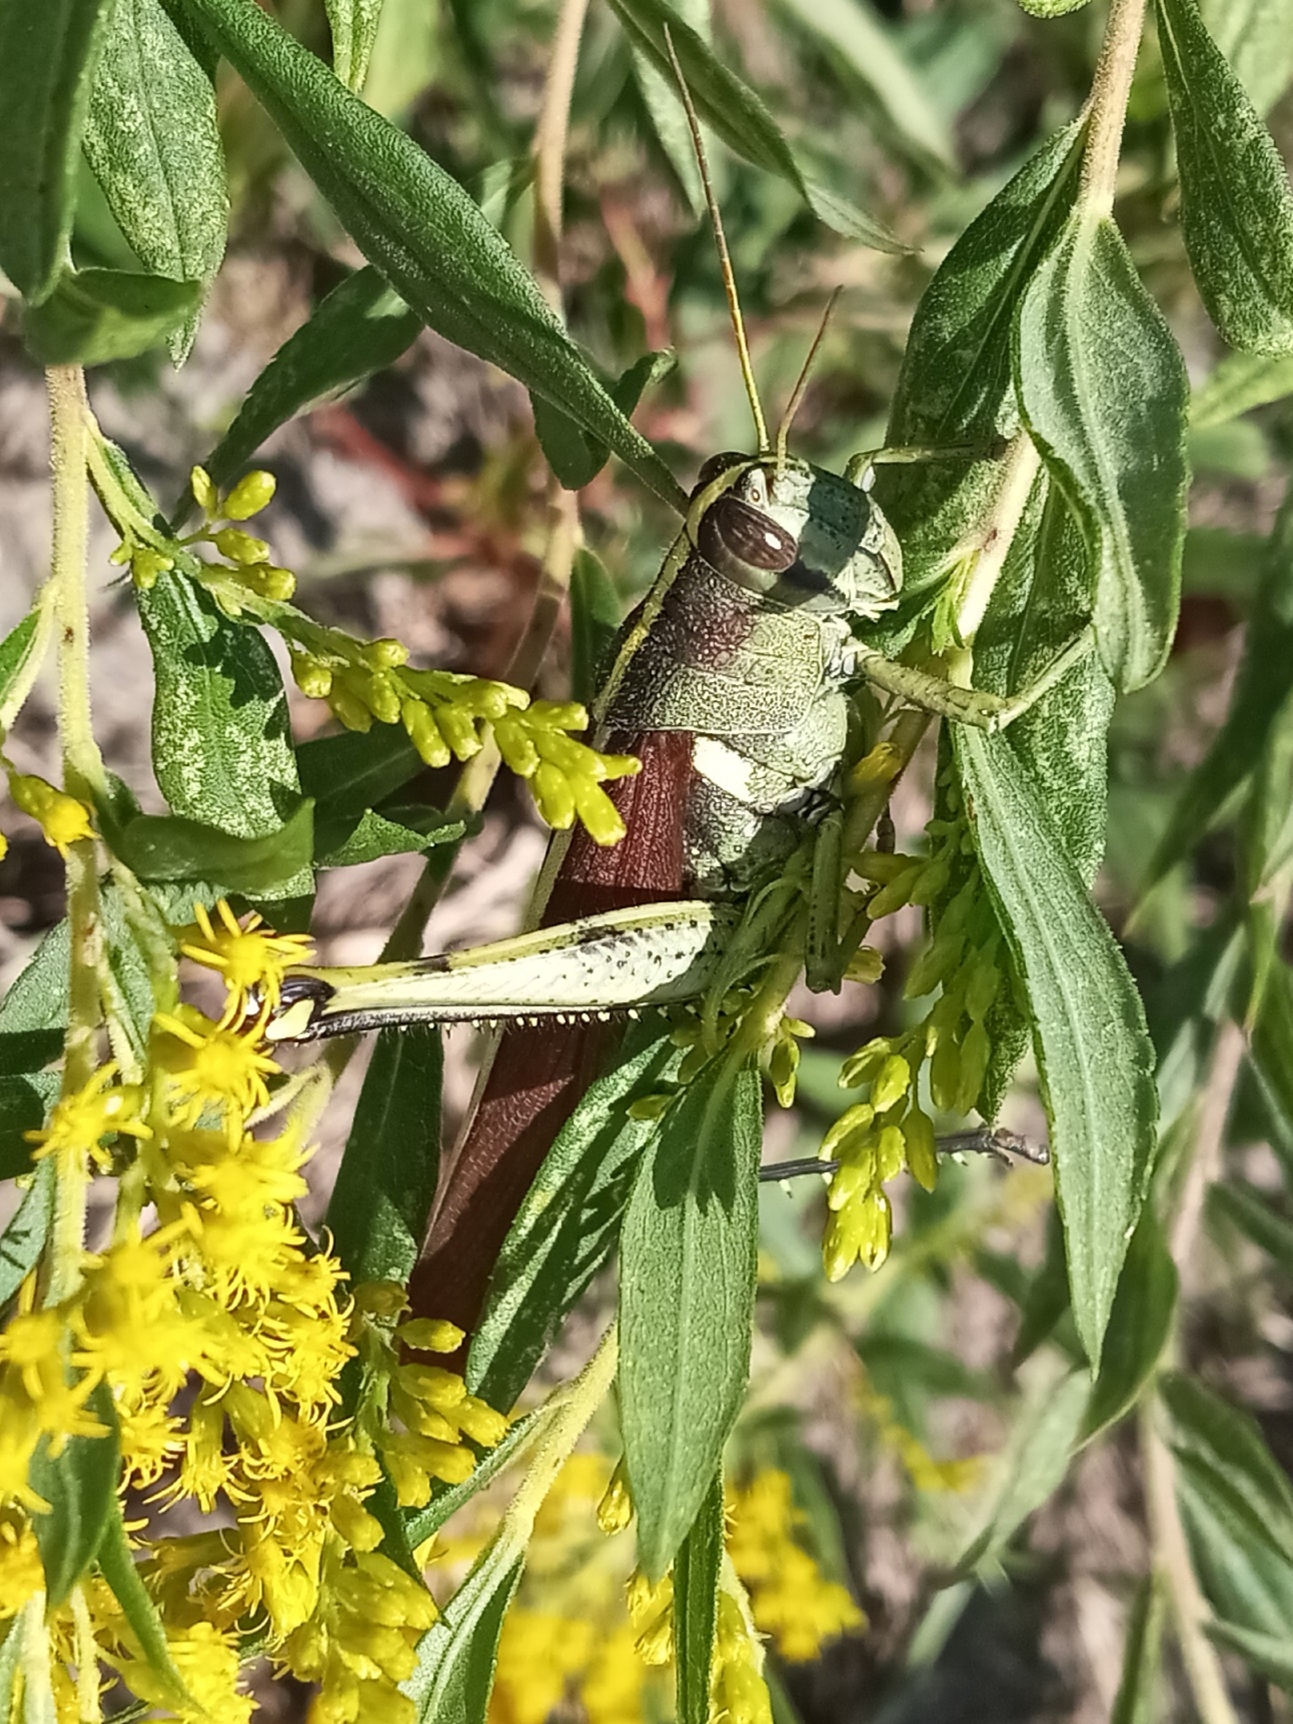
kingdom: Animalia
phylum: Arthropoda
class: Insecta
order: Orthoptera
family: Acrididae
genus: Schistocerca
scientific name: Schistocerca obscura
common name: Obscure bird grasshopper
